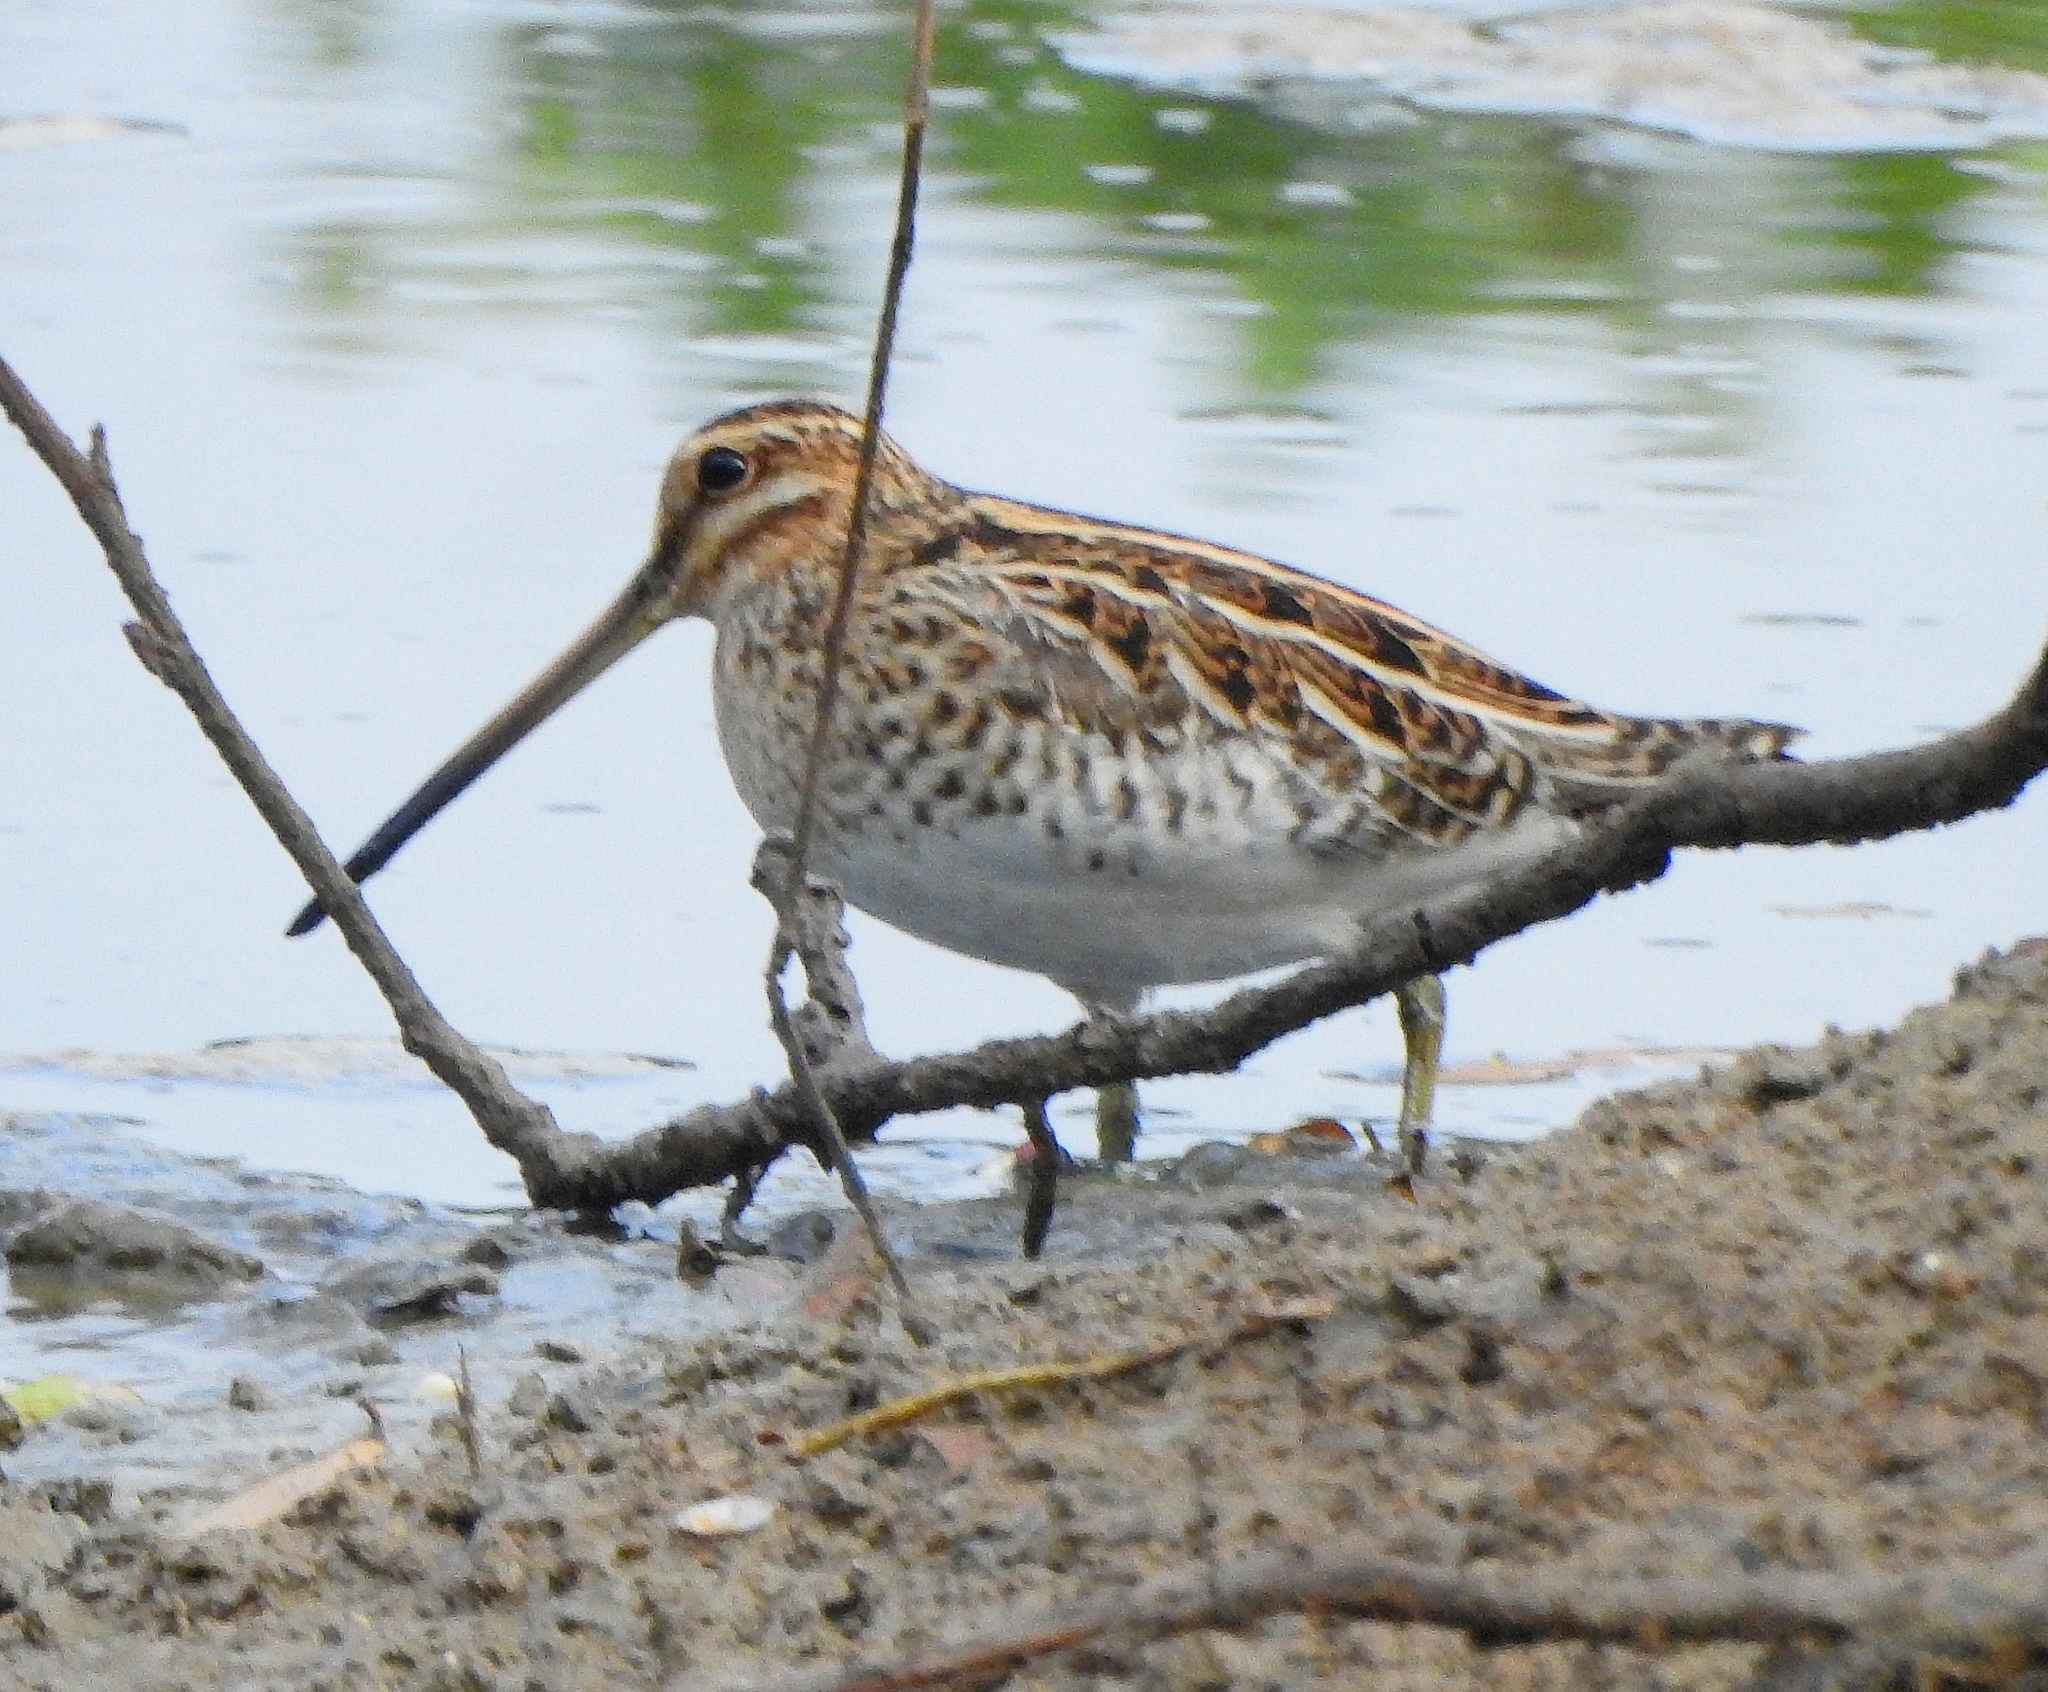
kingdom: Animalia
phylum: Chordata
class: Aves
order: Charadriiformes
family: Scolopacidae
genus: Gallinago
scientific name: Gallinago gallinago
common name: Common snipe
